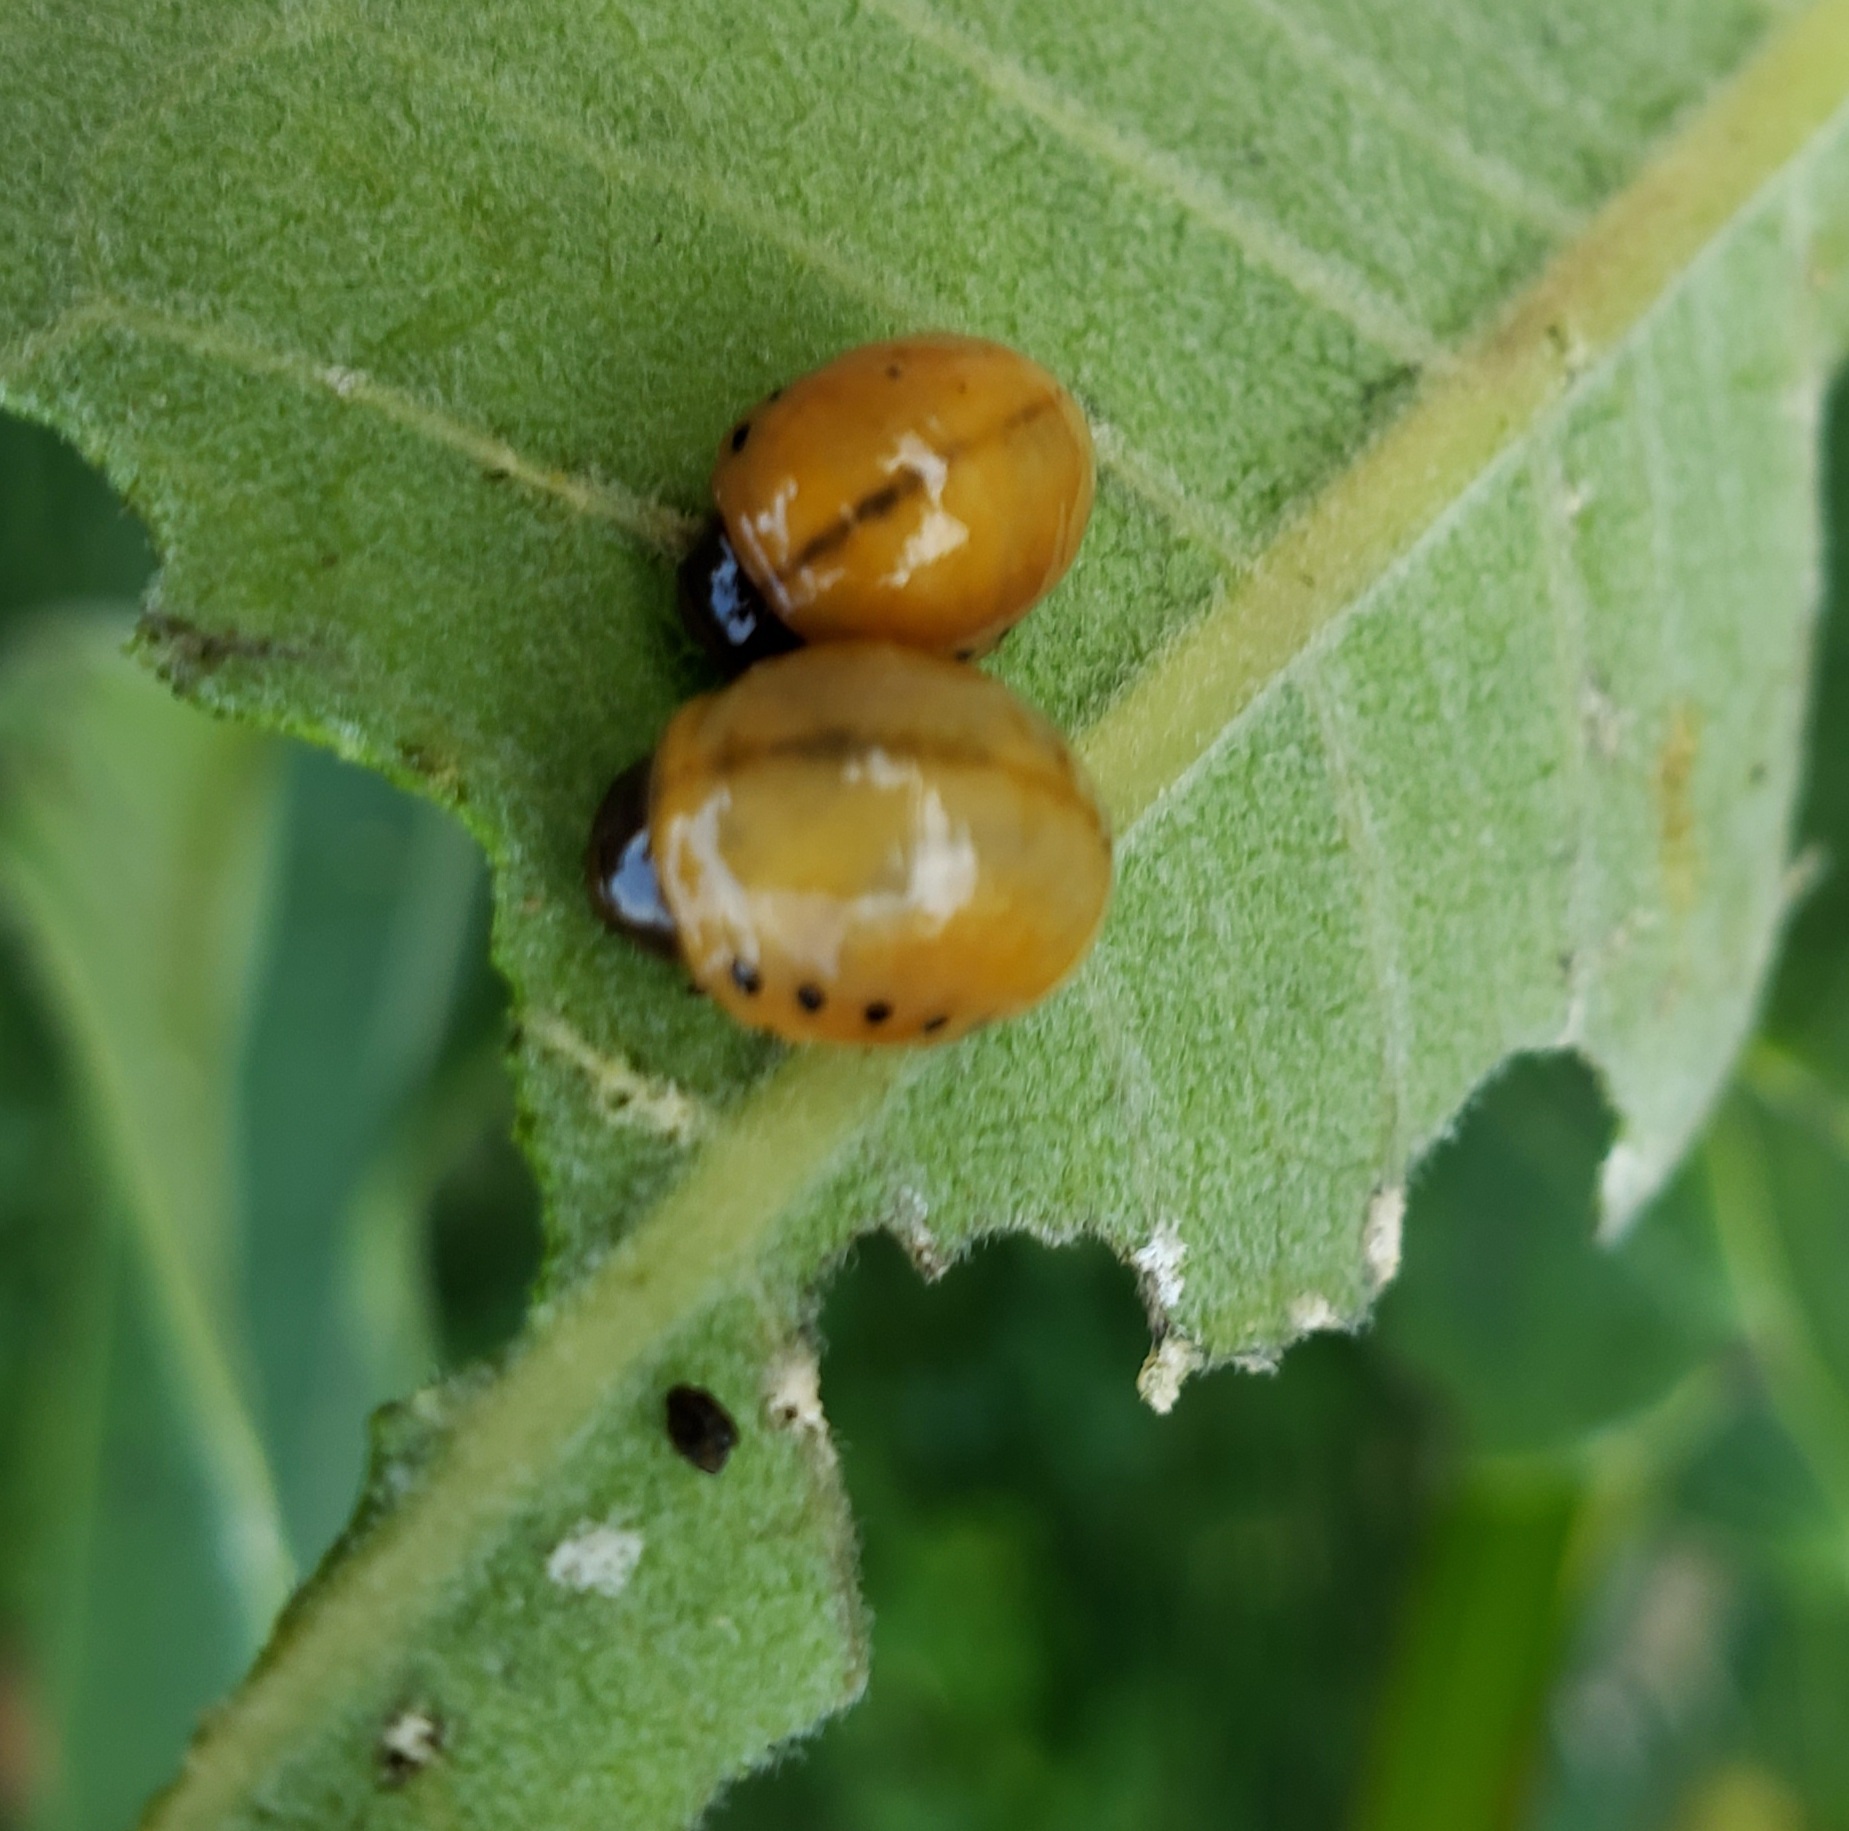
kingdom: Animalia
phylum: Arthropoda
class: Insecta
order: Coleoptera
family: Chrysomelidae
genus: Labidomera
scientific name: Labidomera clivicollis
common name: Swamp milkweed leaf beetle
